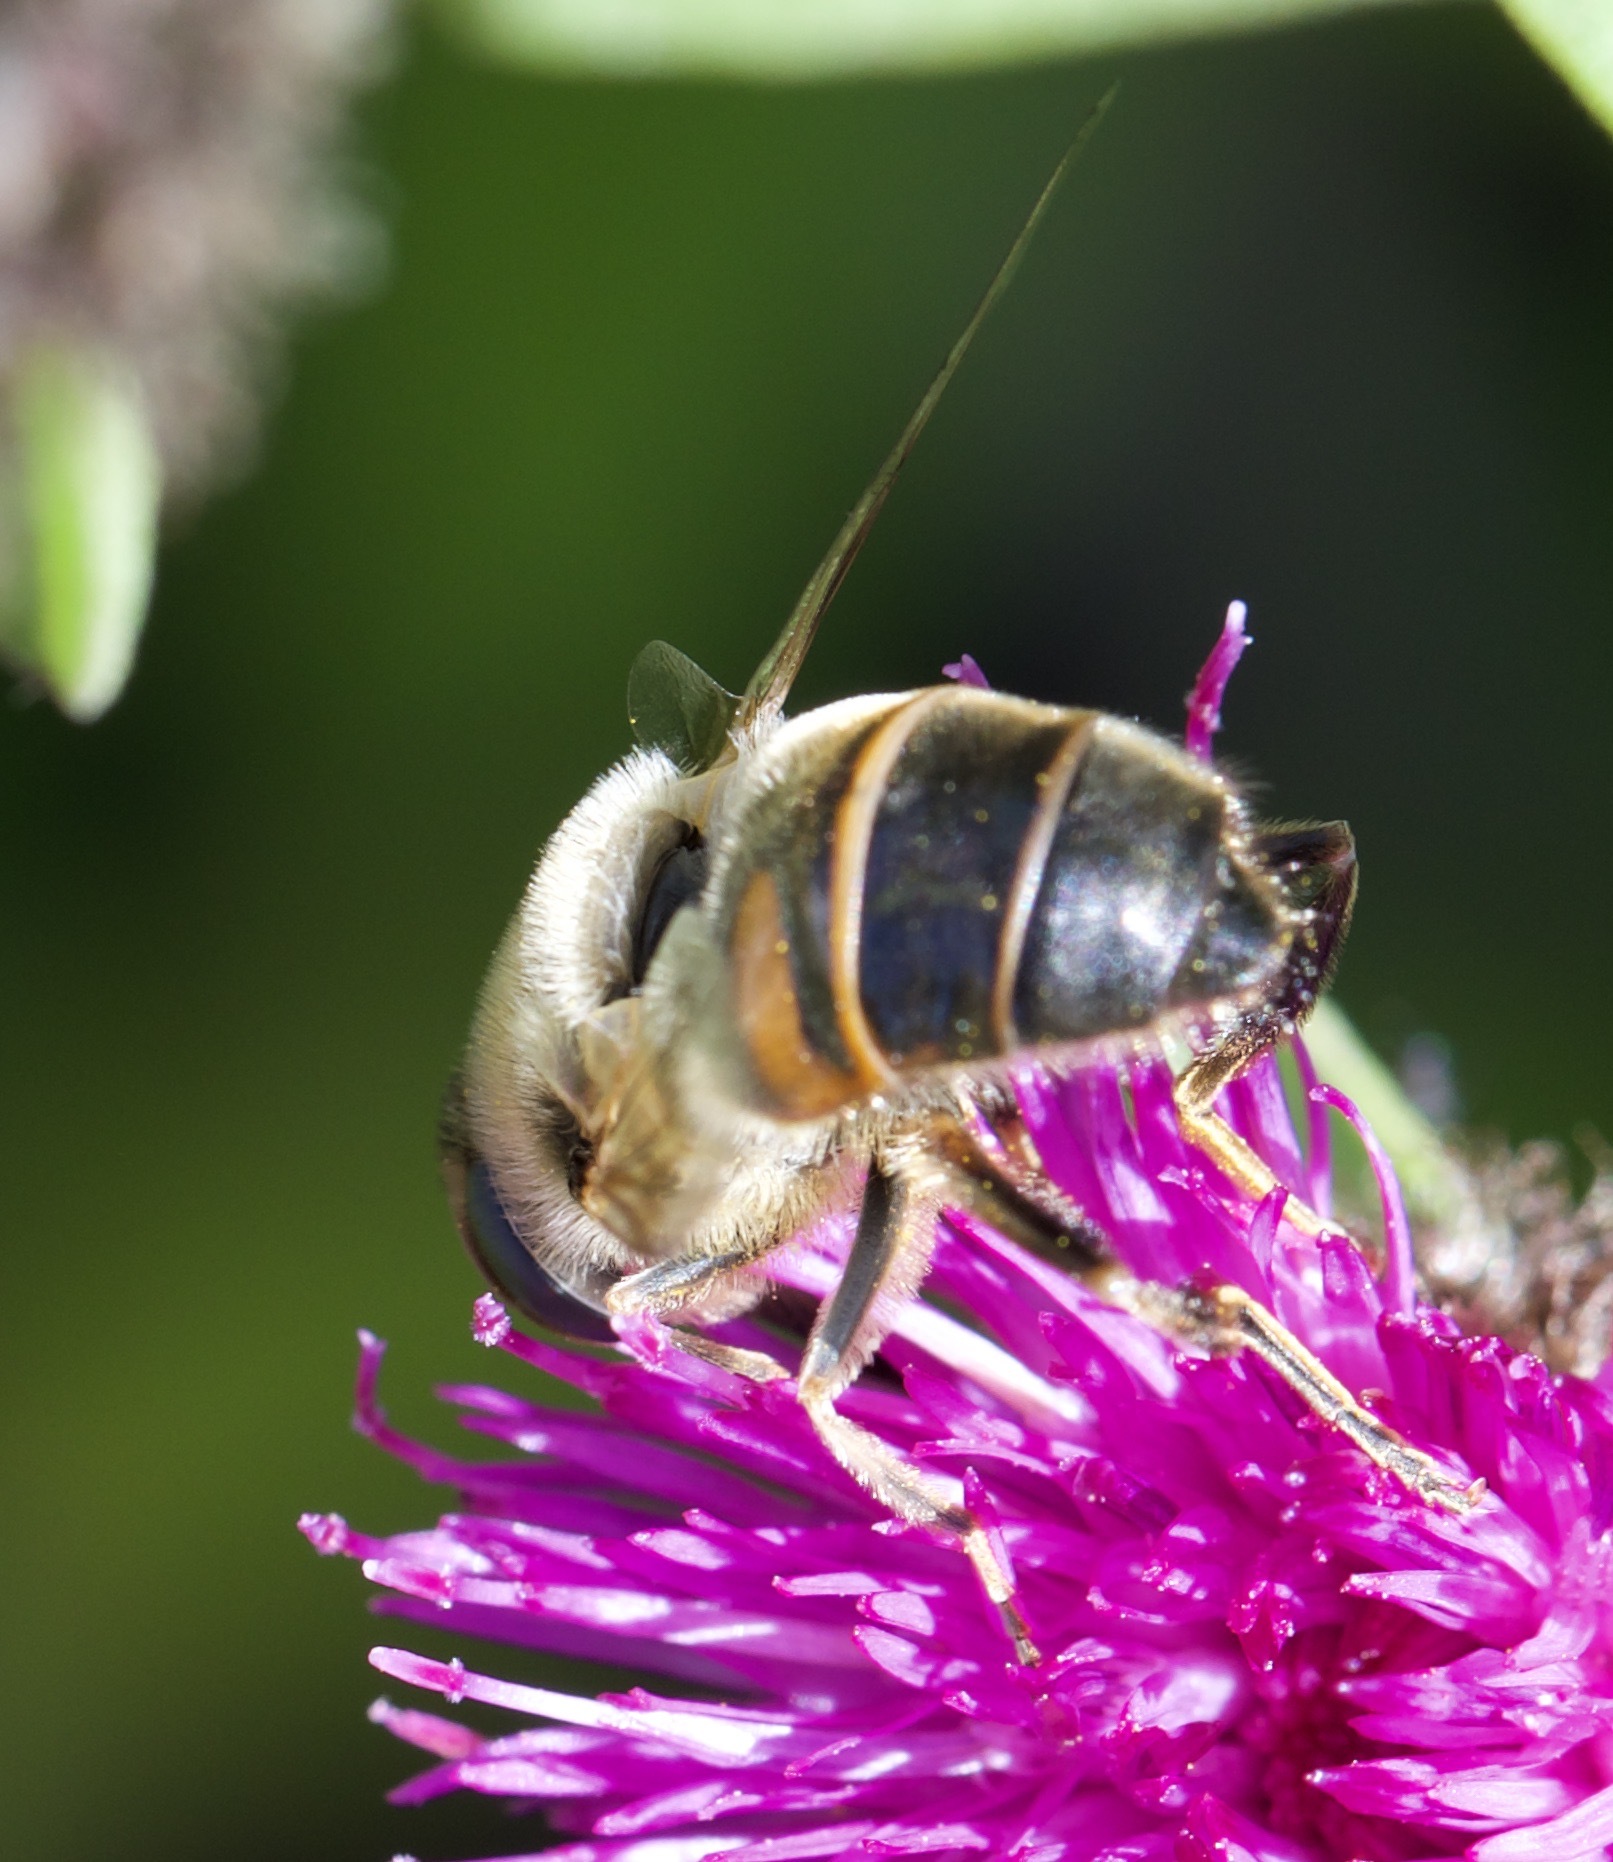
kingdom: Animalia
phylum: Arthropoda
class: Insecta
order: Diptera
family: Syrphidae
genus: Eristalis
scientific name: Eristalis tenax
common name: Drone fly
